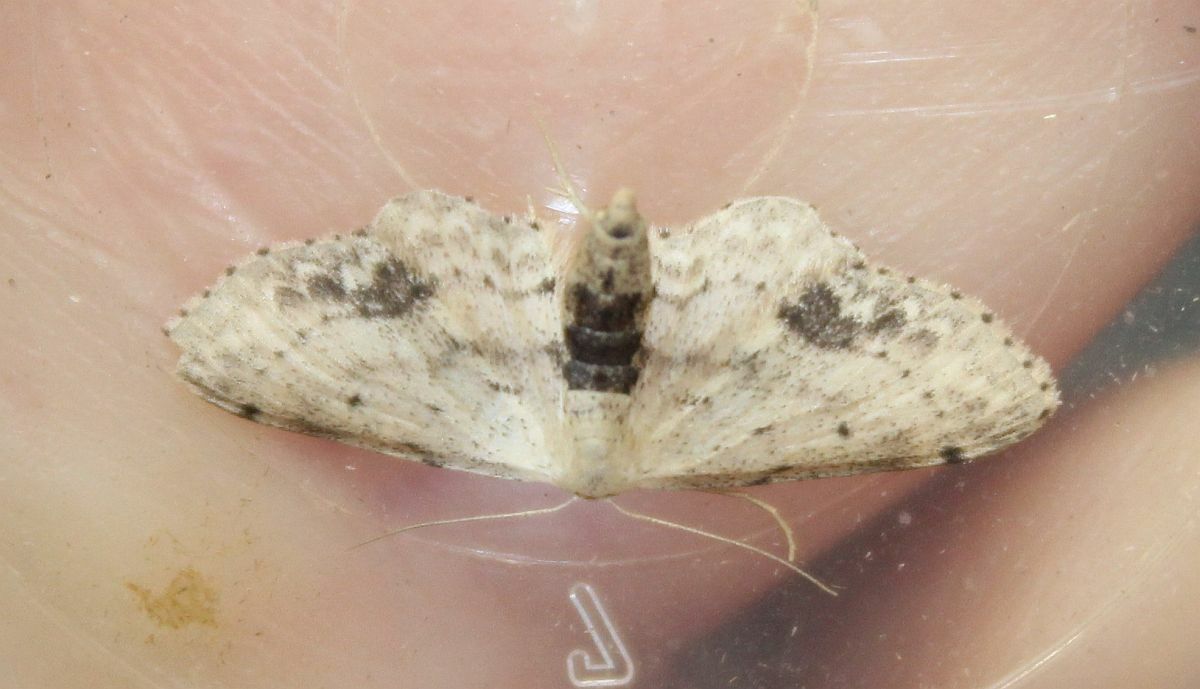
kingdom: Animalia
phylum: Arthropoda
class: Insecta
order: Lepidoptera
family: Geometridae
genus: Idaea
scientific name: Idaea dimidiata
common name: Single-dotted wave
